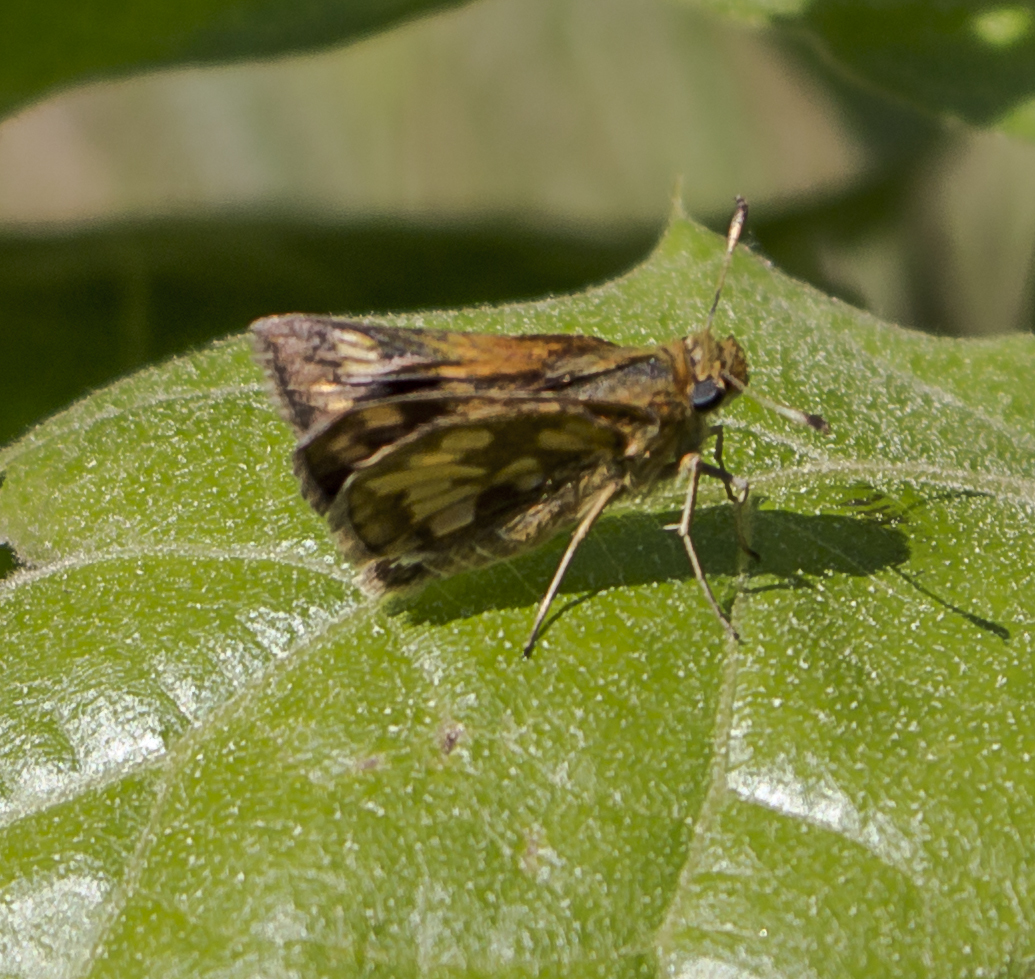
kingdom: Animalia
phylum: Arthropoda
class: Insecta
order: Lepidoptera
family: Hesperiidae
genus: Polites
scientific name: Polites coras
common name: Peck's skipper
